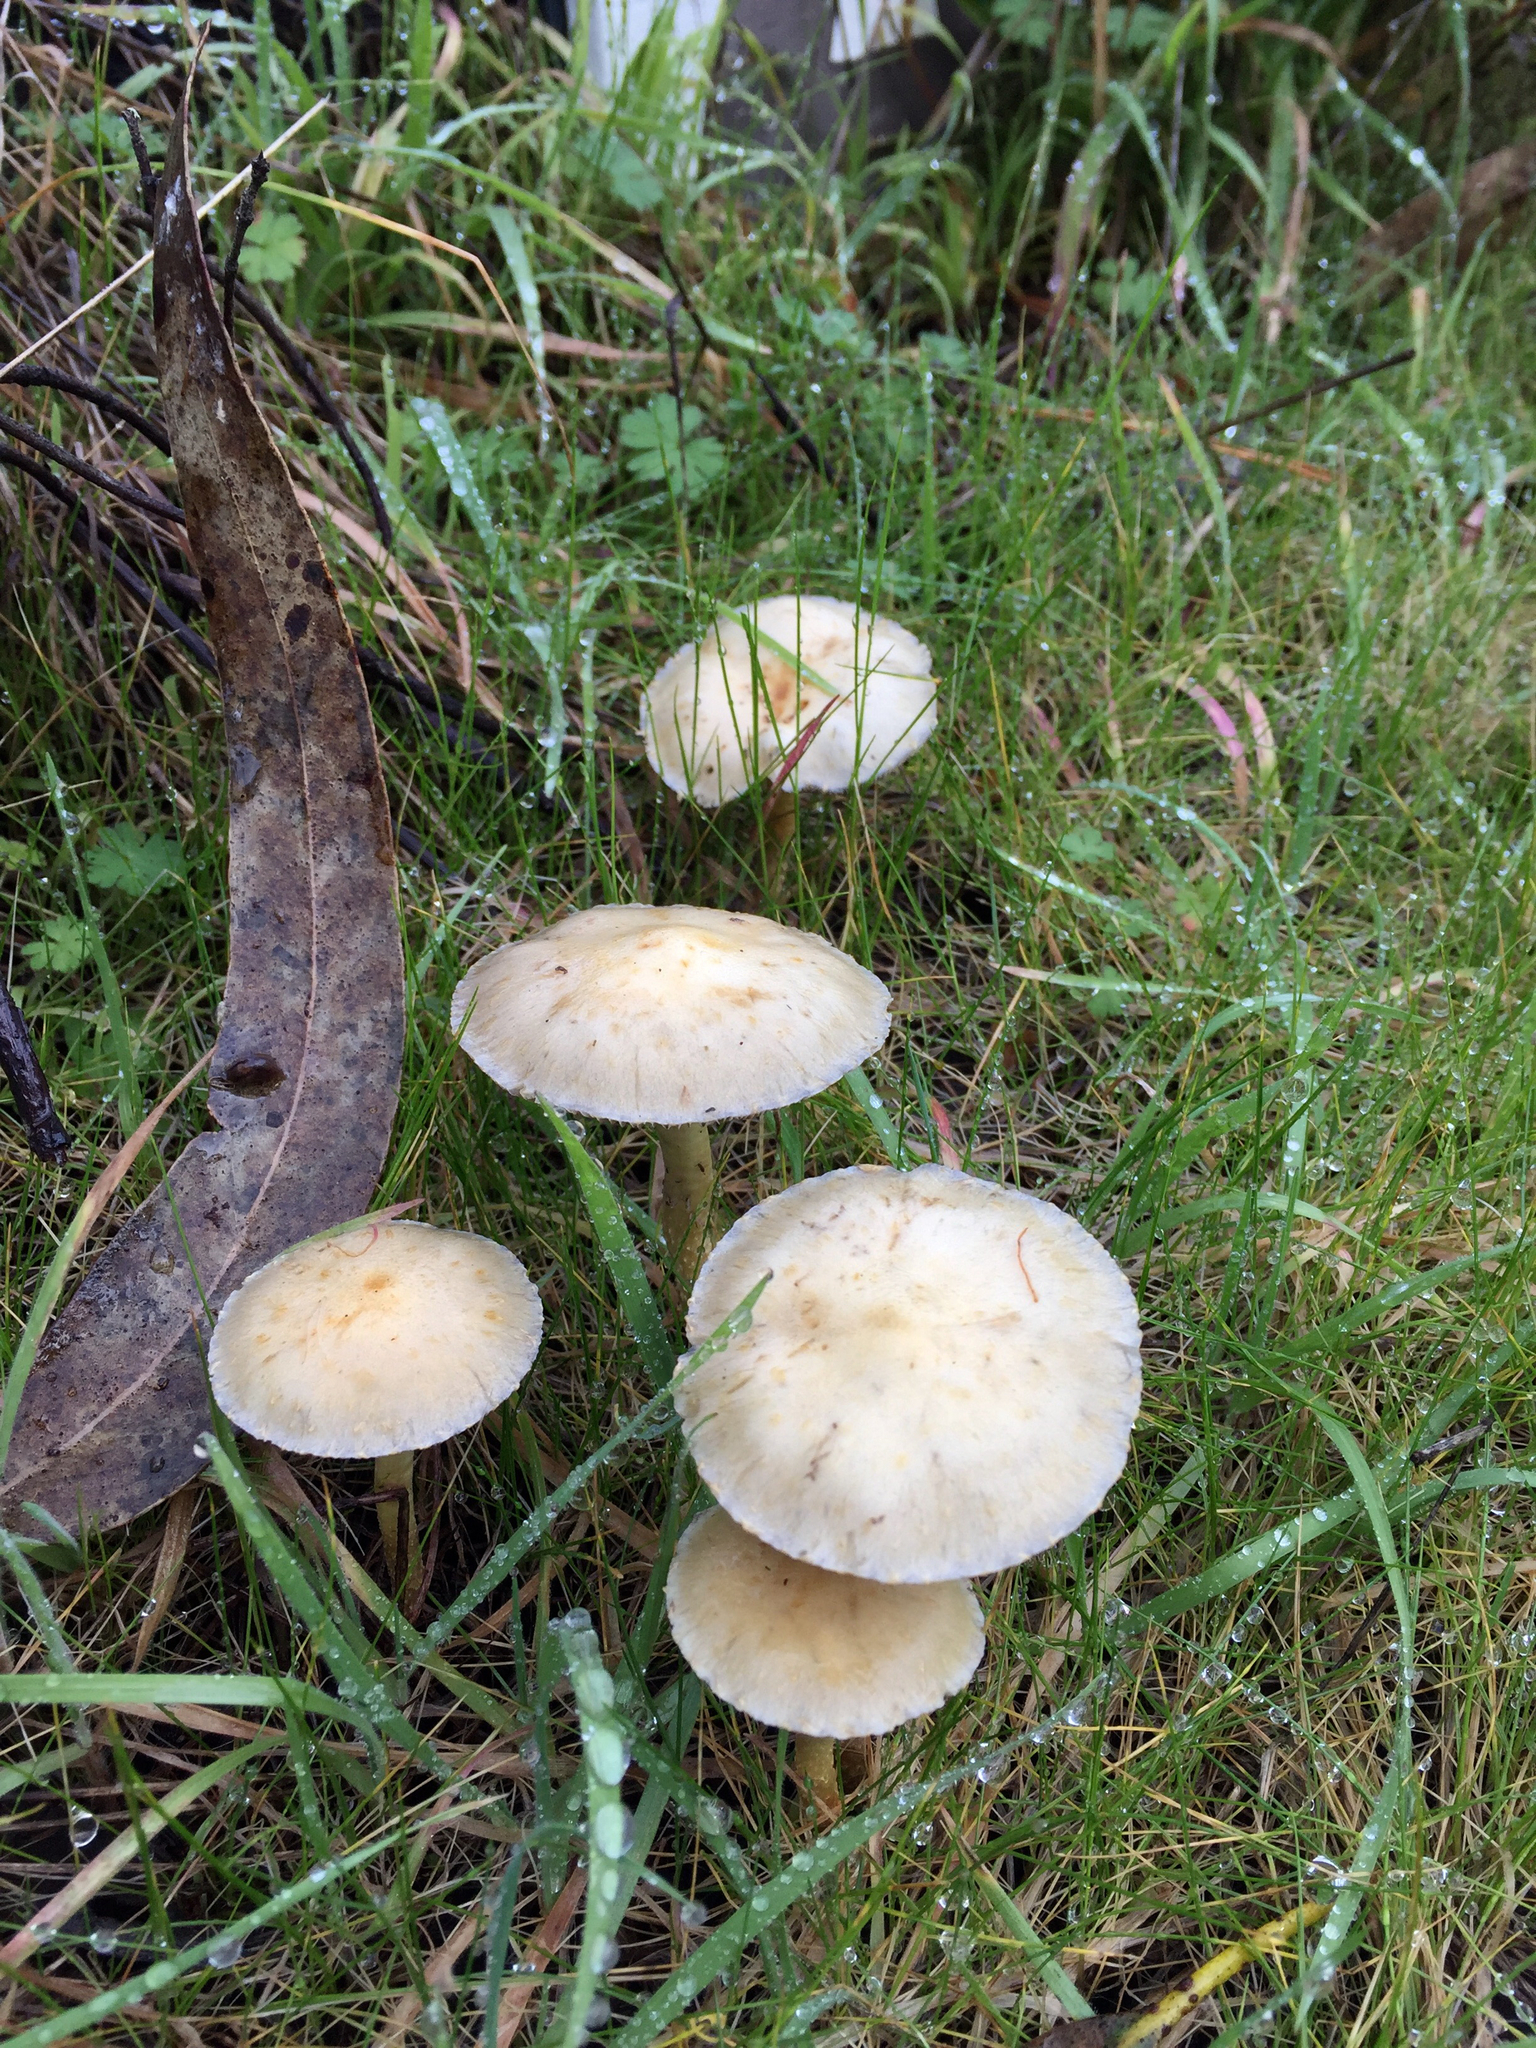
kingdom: Fungi
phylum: Basidiomycota
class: Agaricomycetes
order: Agaricales
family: Strophariaceae
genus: Leratiomyces
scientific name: Leratiomyces percevalii
